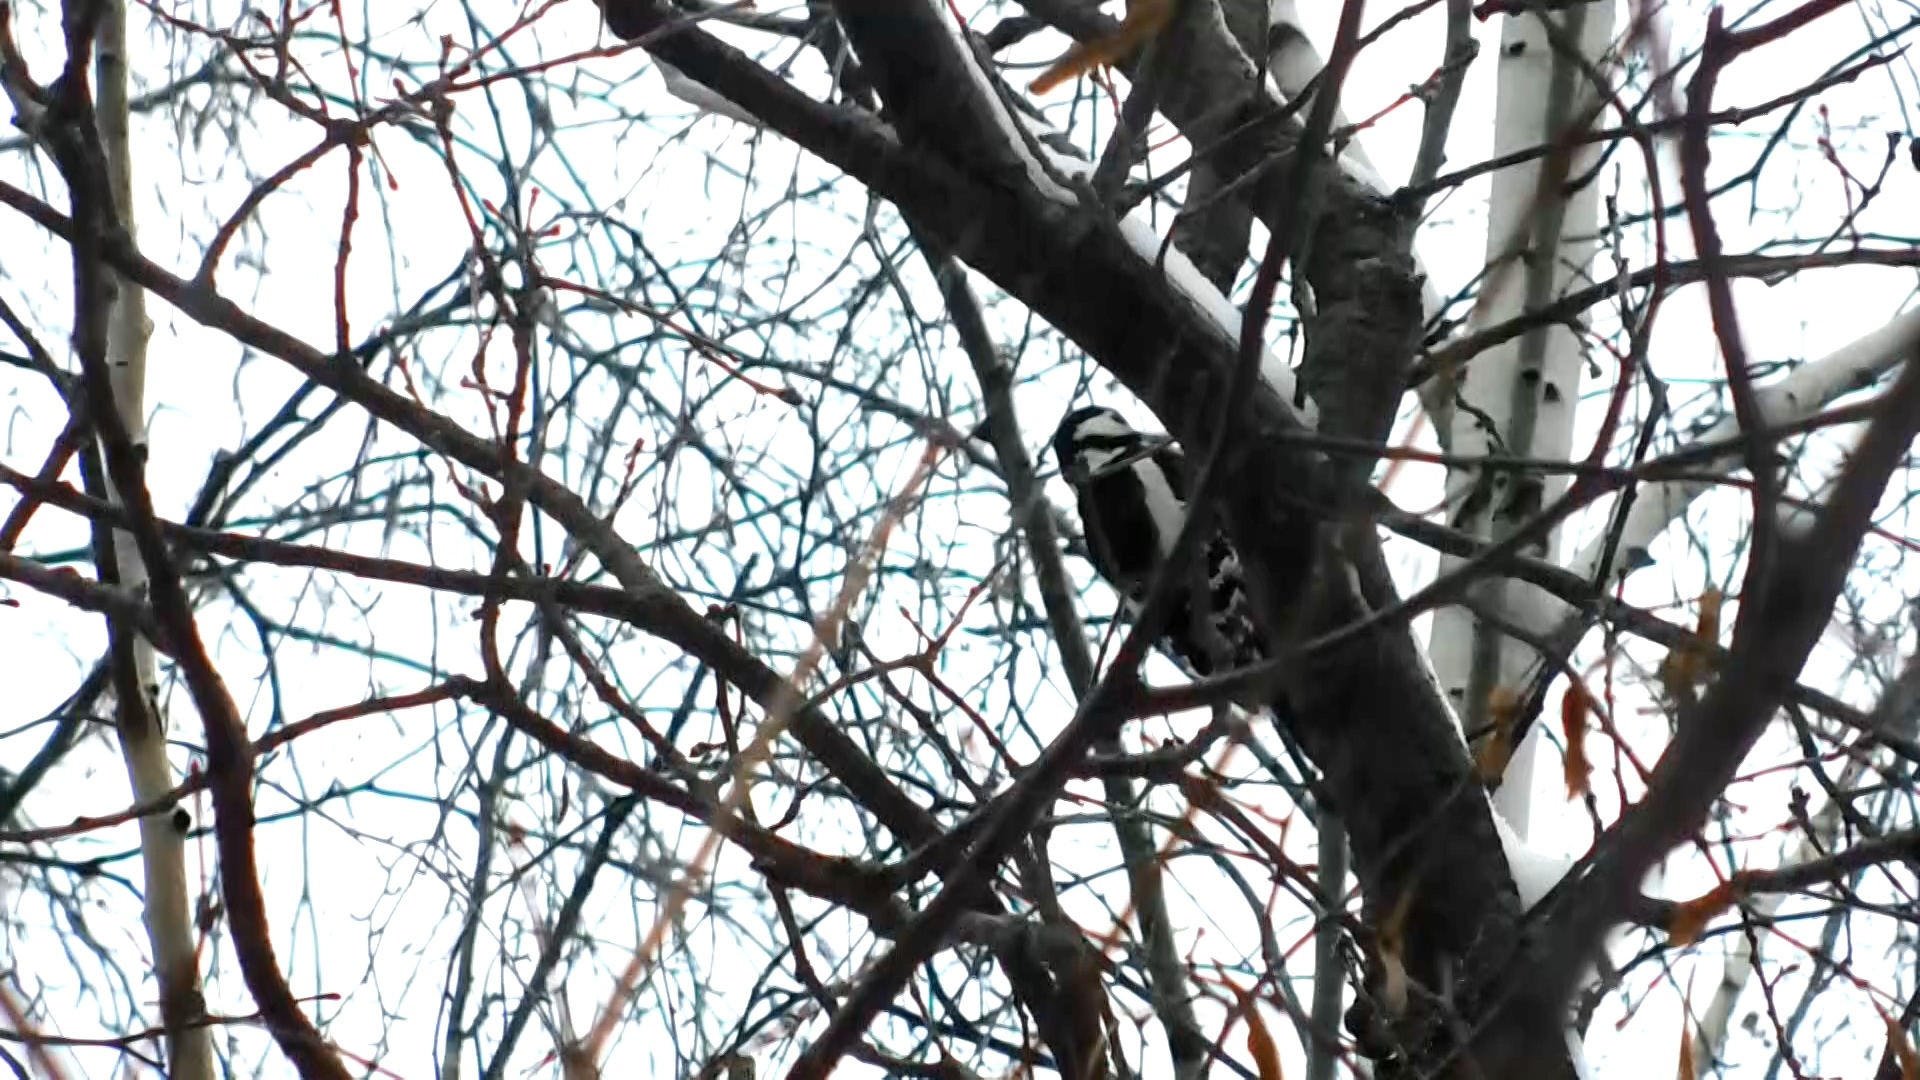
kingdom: Animalia
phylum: Chordata
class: Aves
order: Piciformes
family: Picidae
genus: Dendrocopos
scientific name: Dendrocopos major
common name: Great spotted woodpecker
